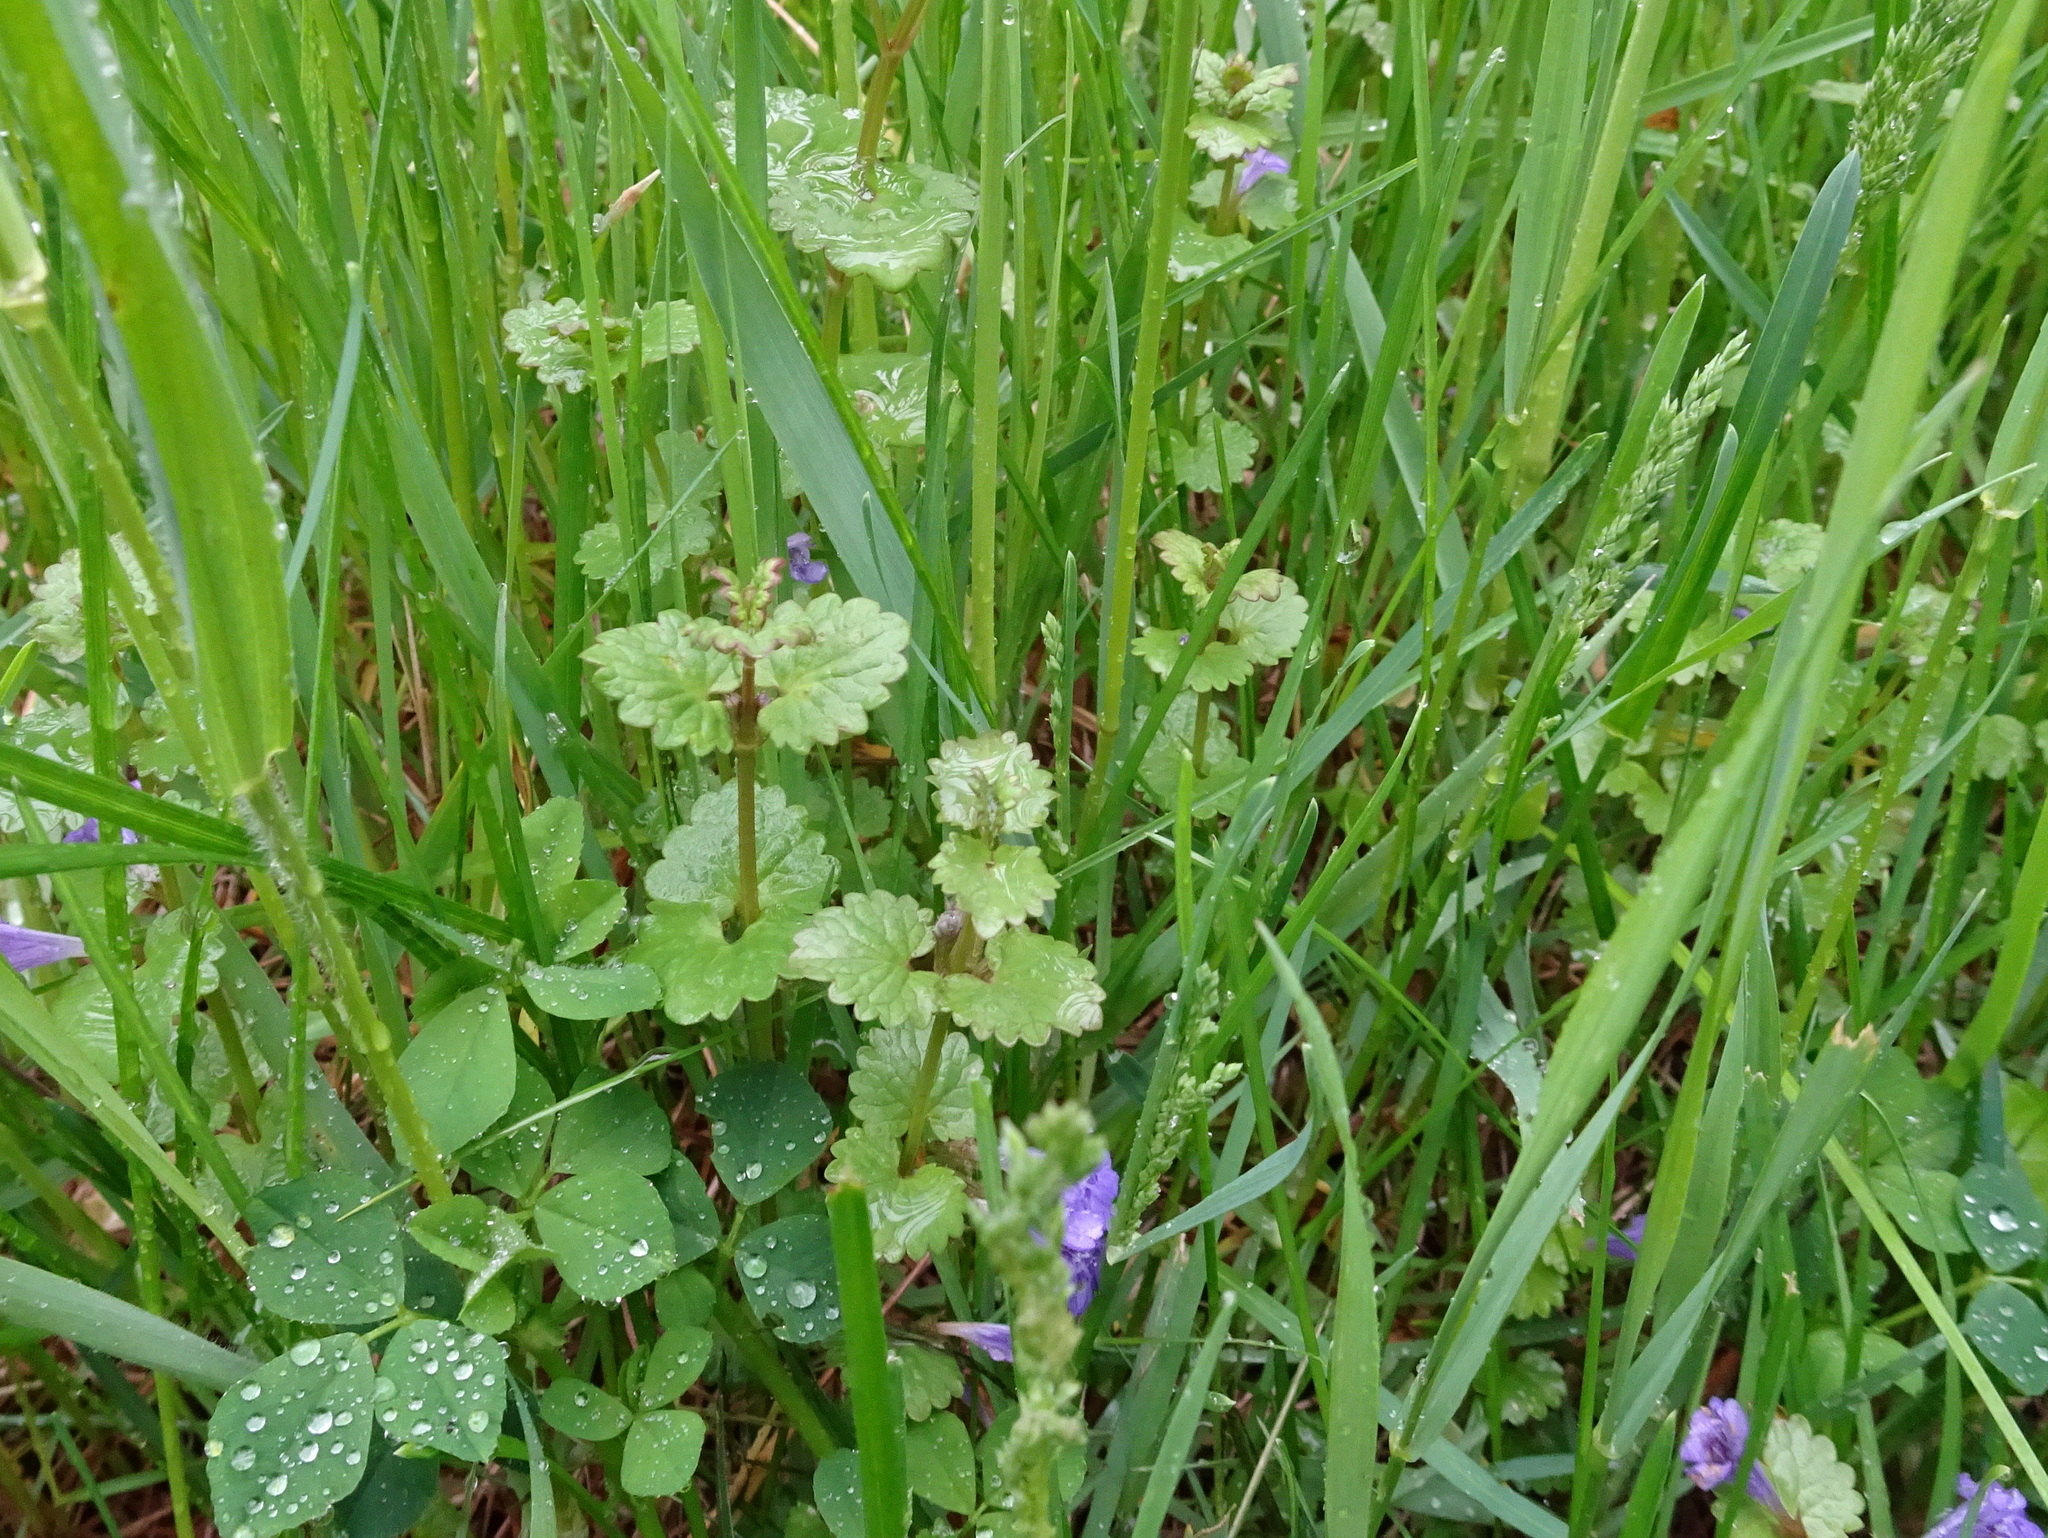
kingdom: Plantae
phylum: Tracheophyta
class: Magnoliopsida
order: Lamiales
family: Lamiaceae
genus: Glechoma
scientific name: Glechoma hederacea
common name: Ground ivy
